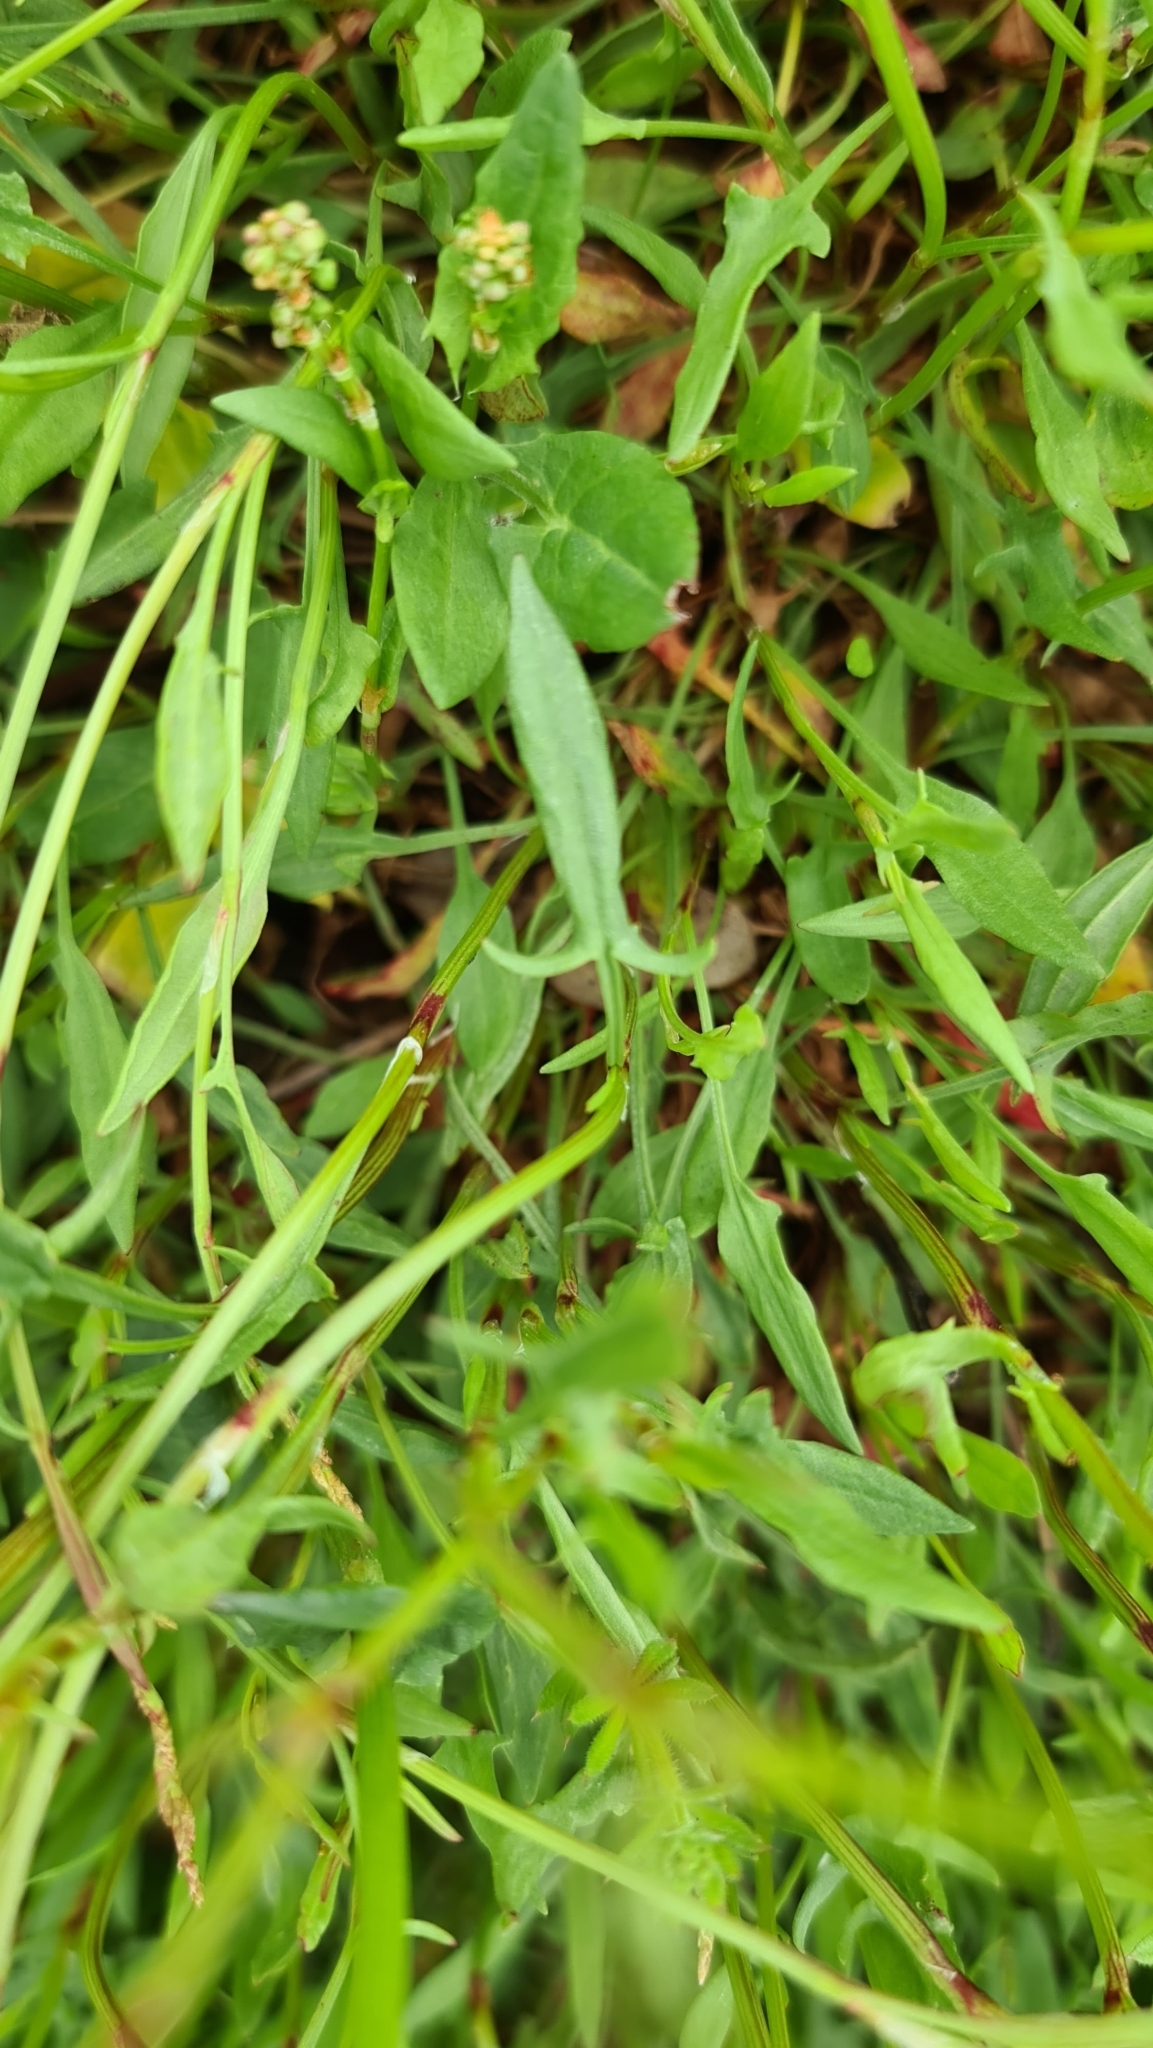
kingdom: Plantae
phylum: Tracheophyta
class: Magnoliopsida
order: Caryophyllales
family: Polygonaceae
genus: Rumex
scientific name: Rumex acetosella
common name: Common sheep sorrel
